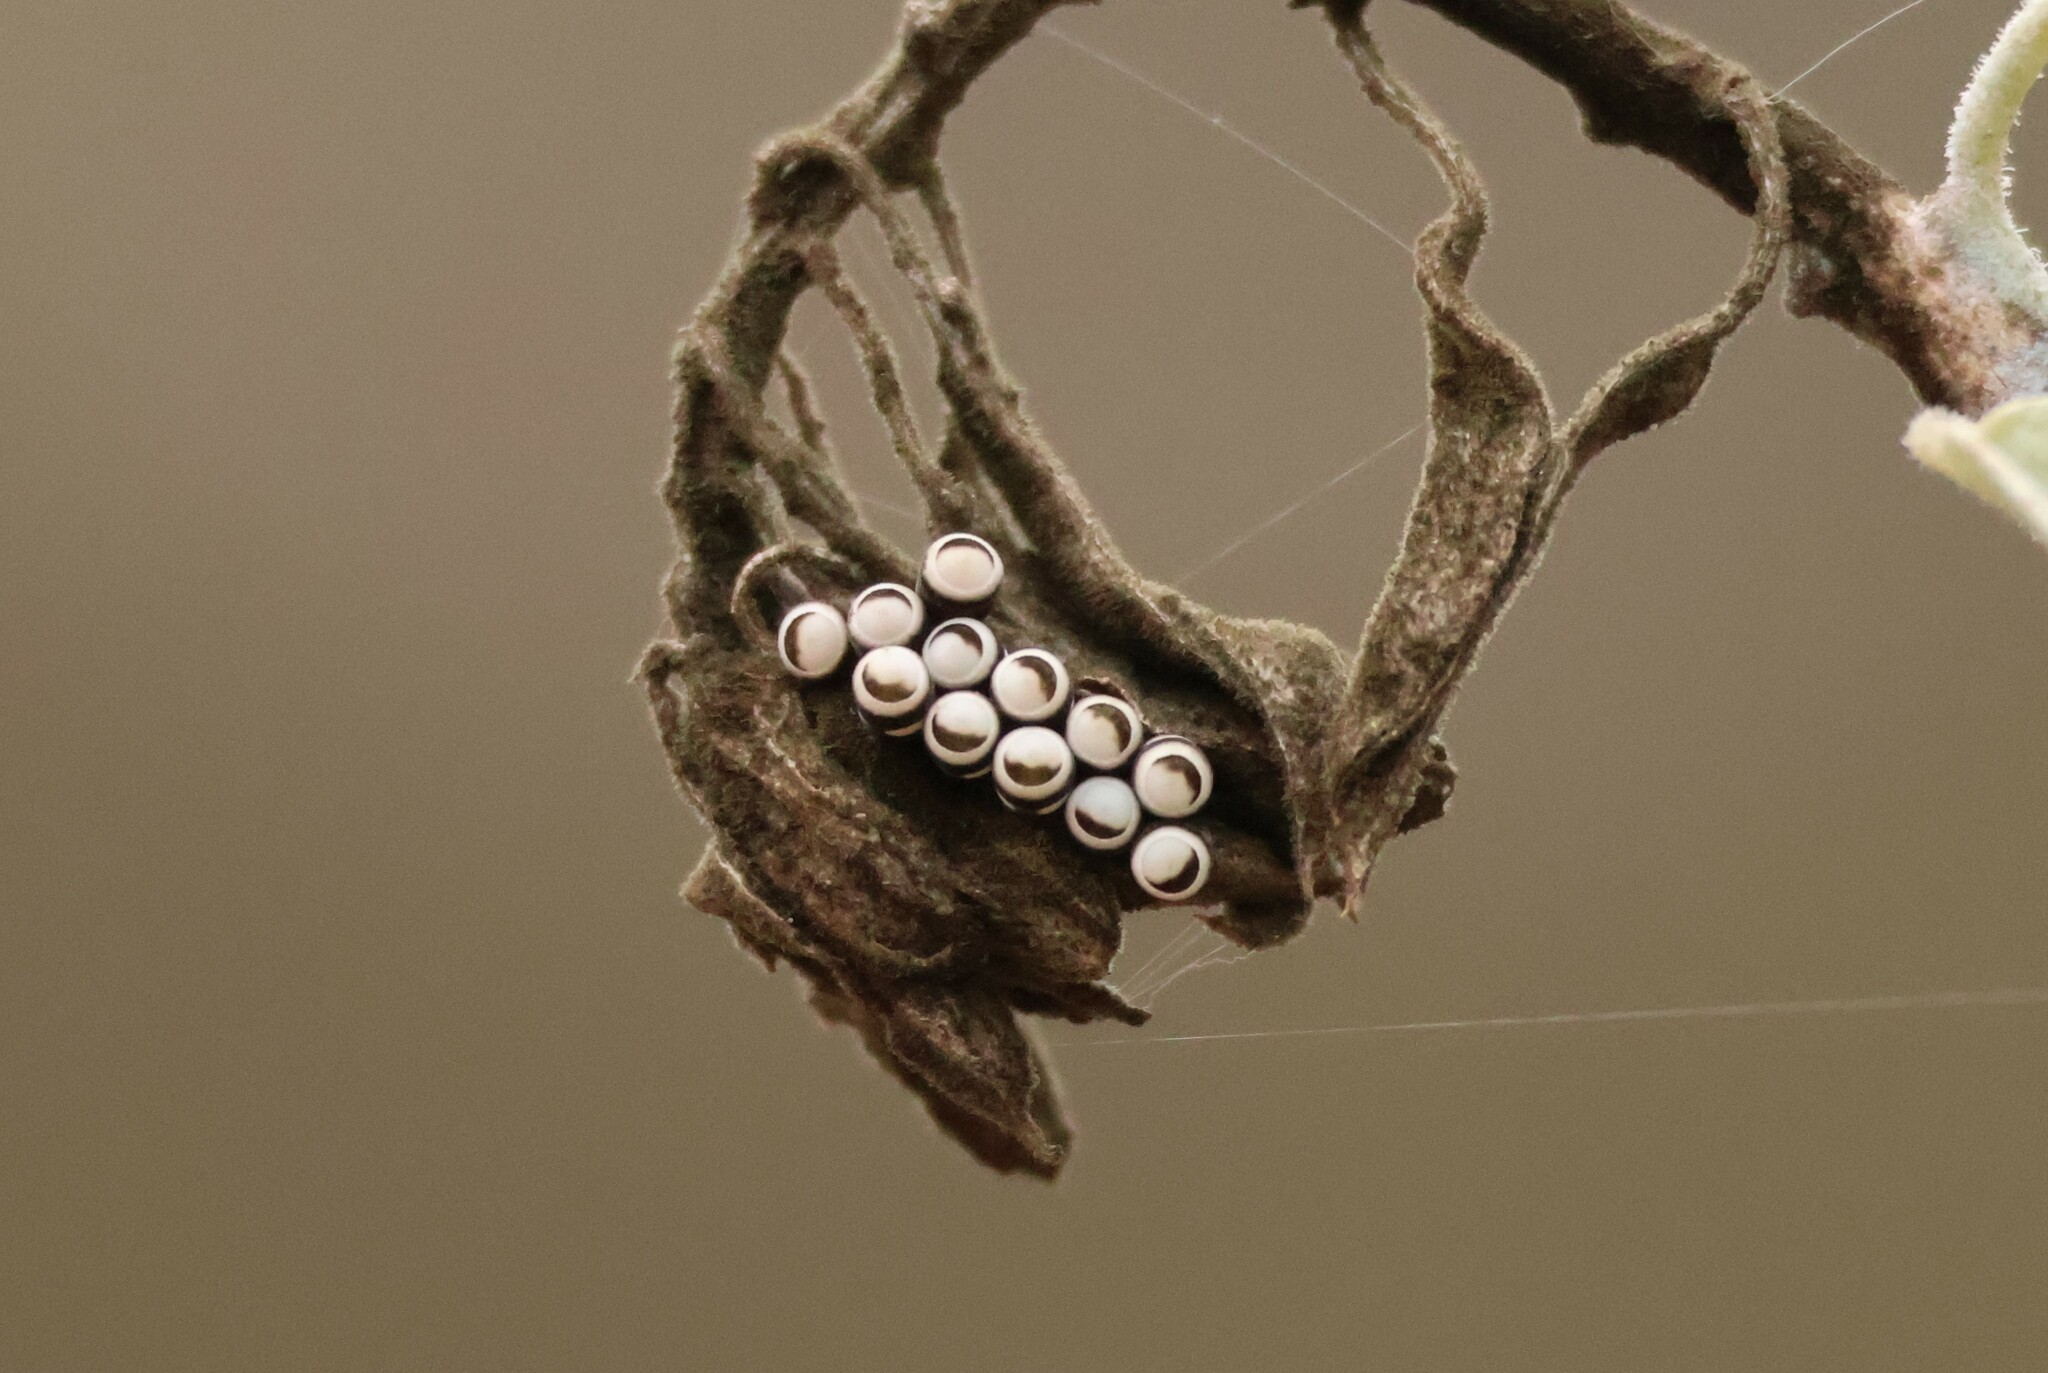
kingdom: Animalia
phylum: Arthropoda
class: Insecta
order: Hemiptera
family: Pentatomidae
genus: Murgantia
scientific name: Murgantia histrionica
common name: Harlequin bug
